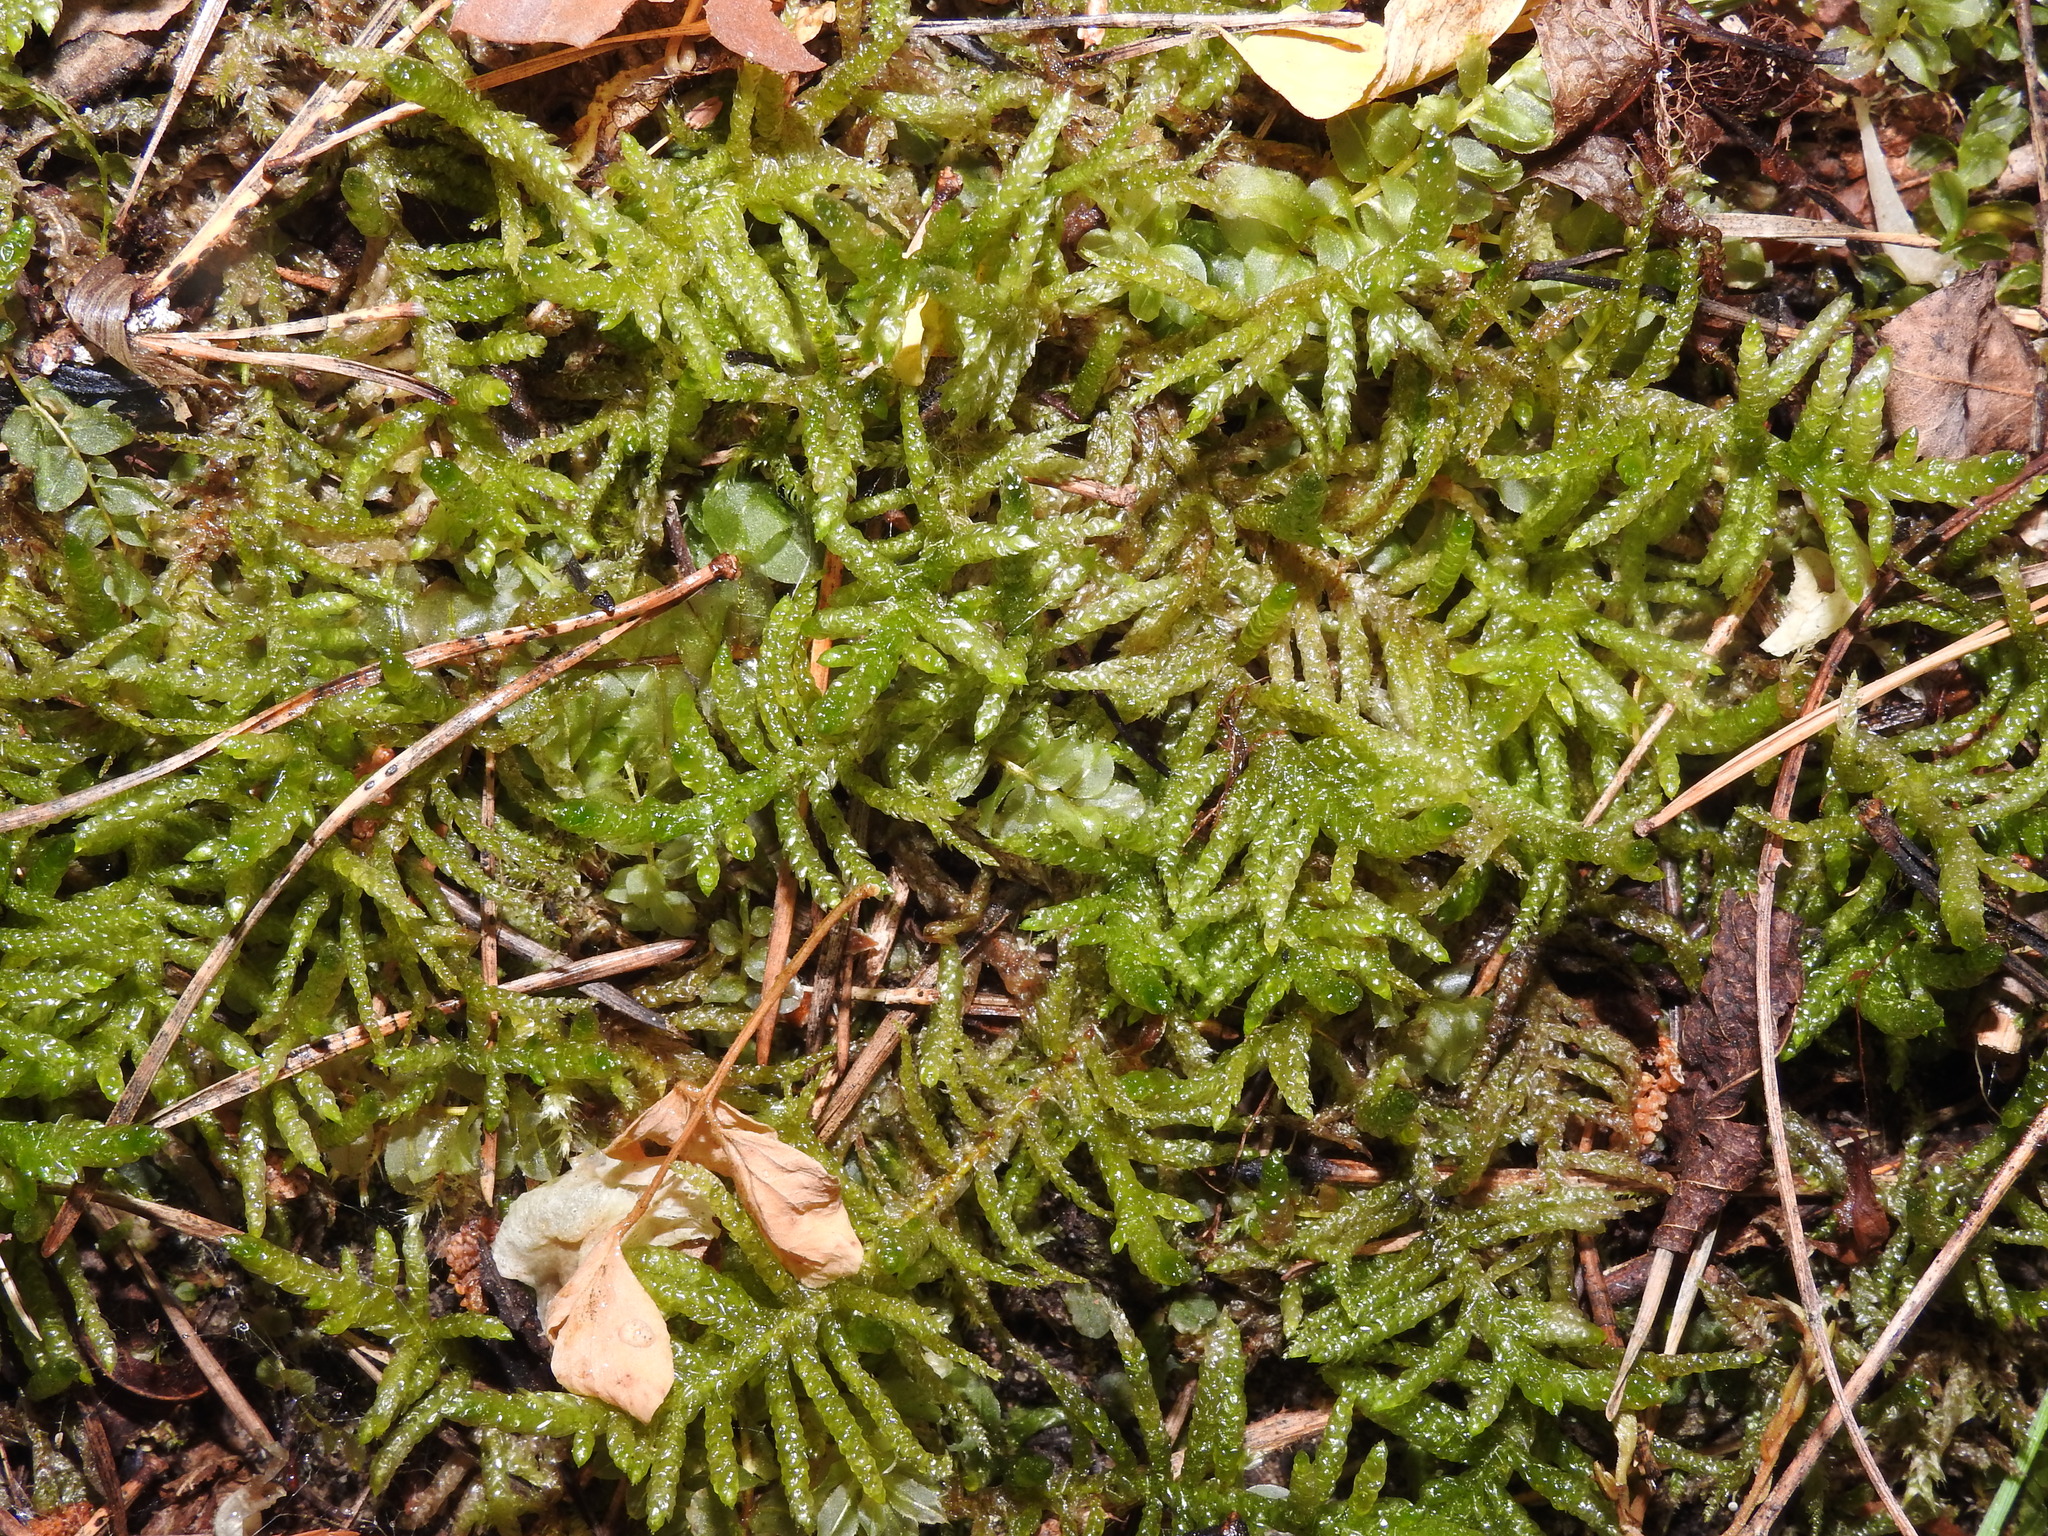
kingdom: Plantae
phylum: Bryophyta
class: Bryopsida
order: Hypnales
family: Brachytheciaceae
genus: Pseudoscleropodium
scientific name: Pseudoscleropodium purum
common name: Neat feather-moss
